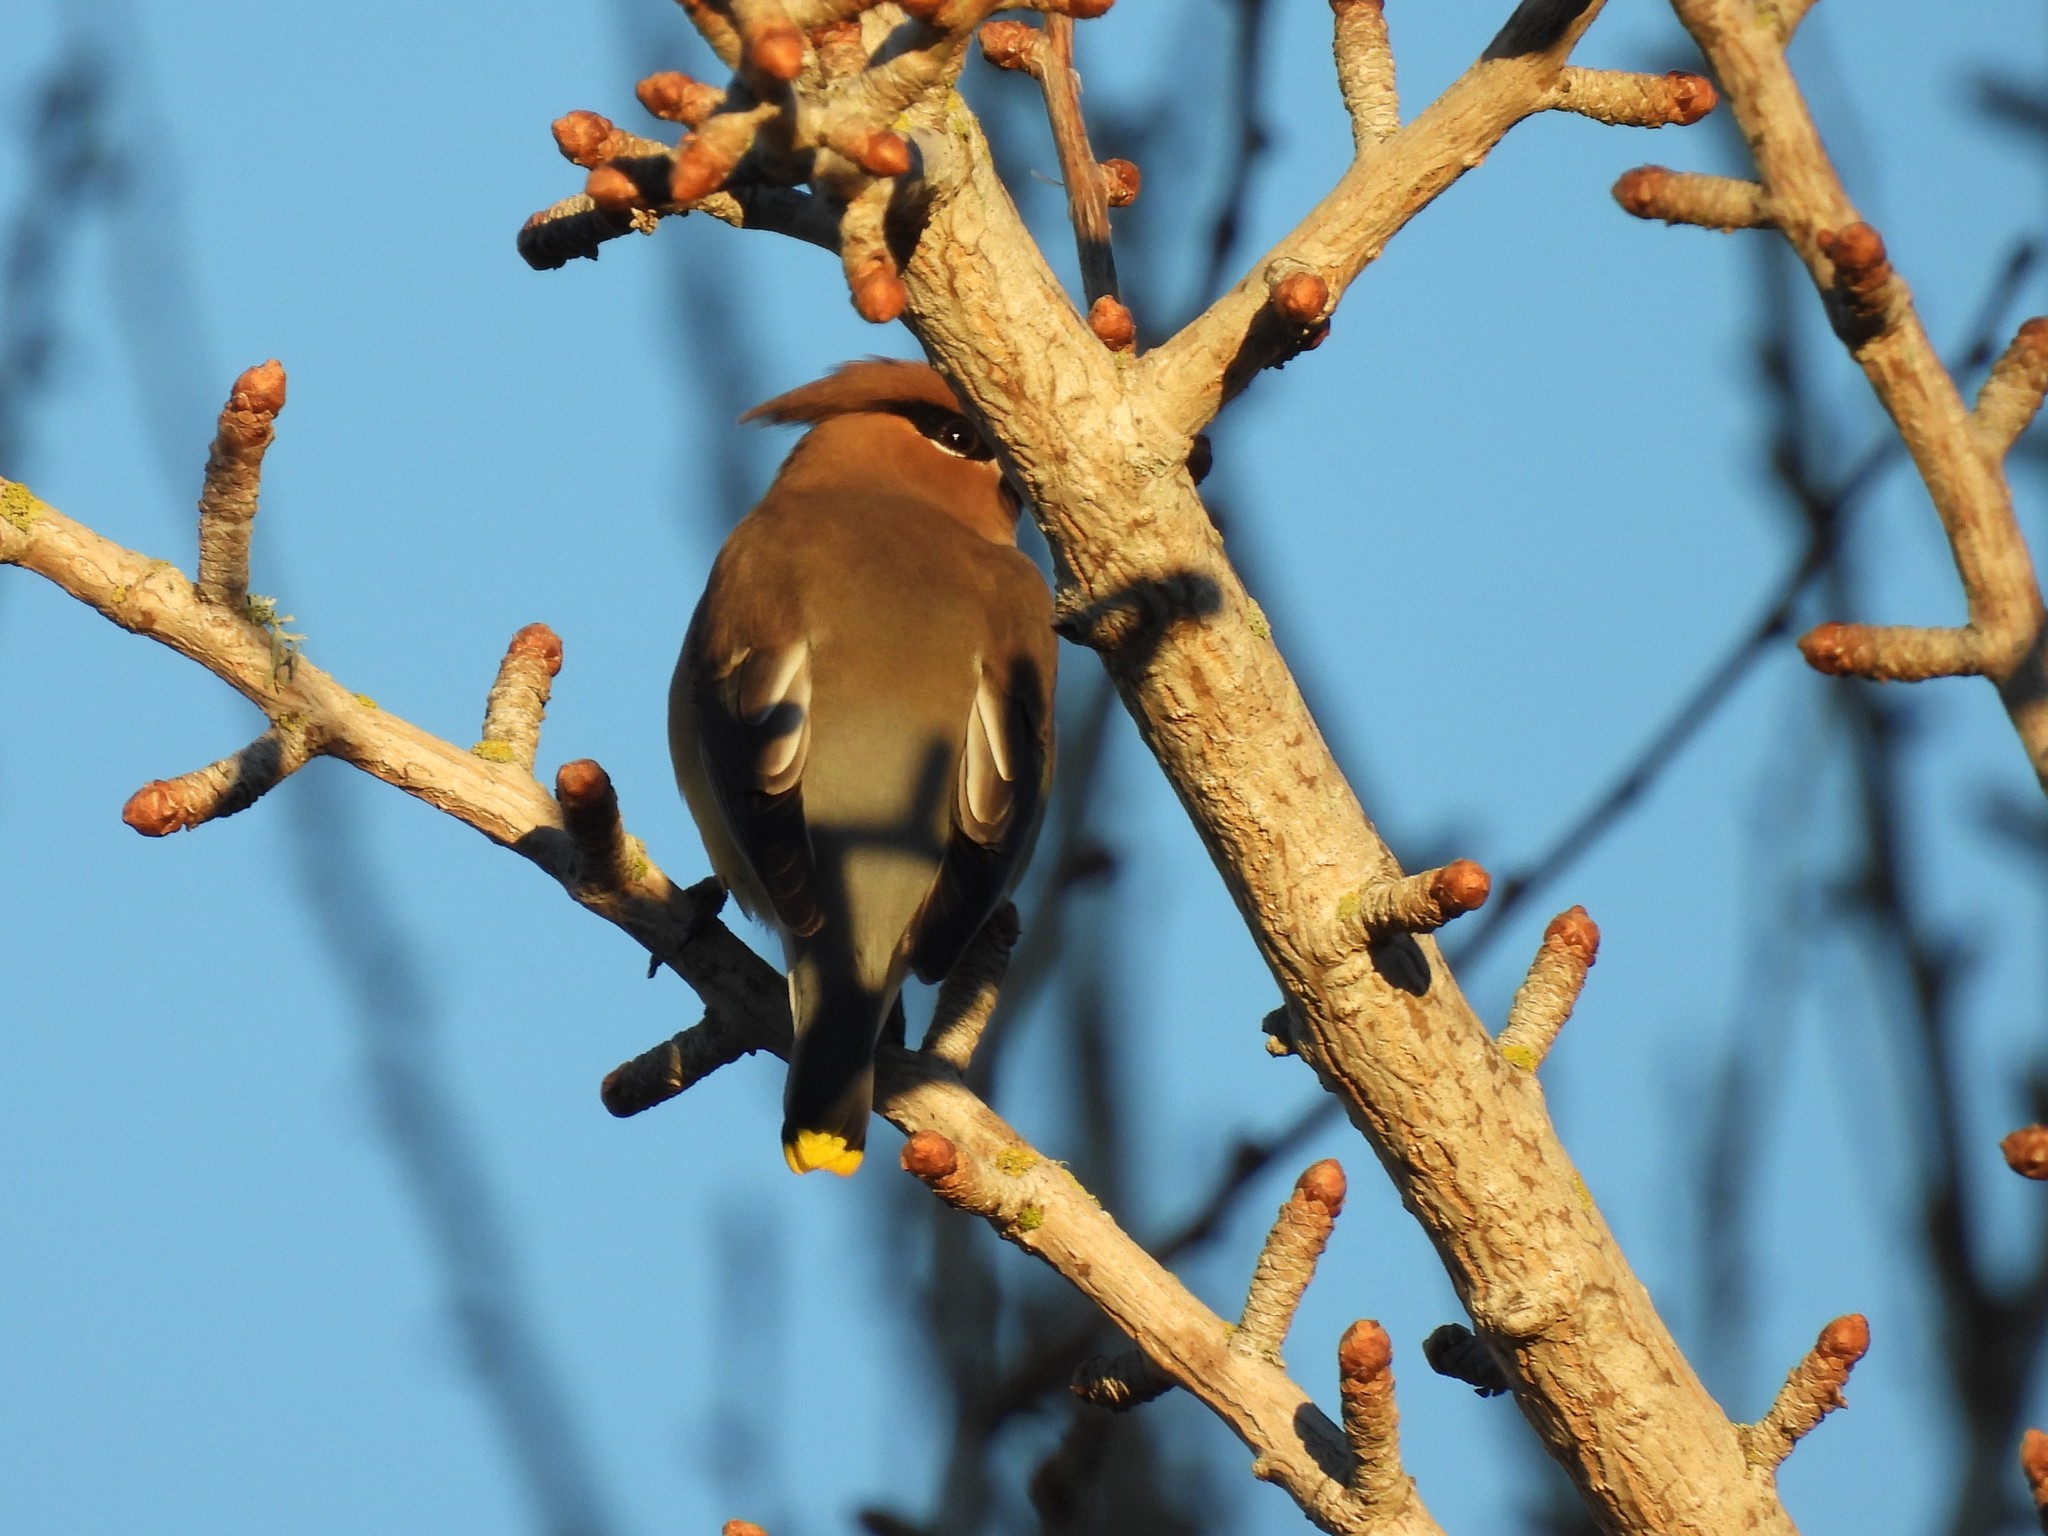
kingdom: Animalia
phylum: Chordata
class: Aves
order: Passeriformes
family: Bombycillidae
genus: Bombycilla
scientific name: Bombycilla cedrorum
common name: Cedar waxwing
